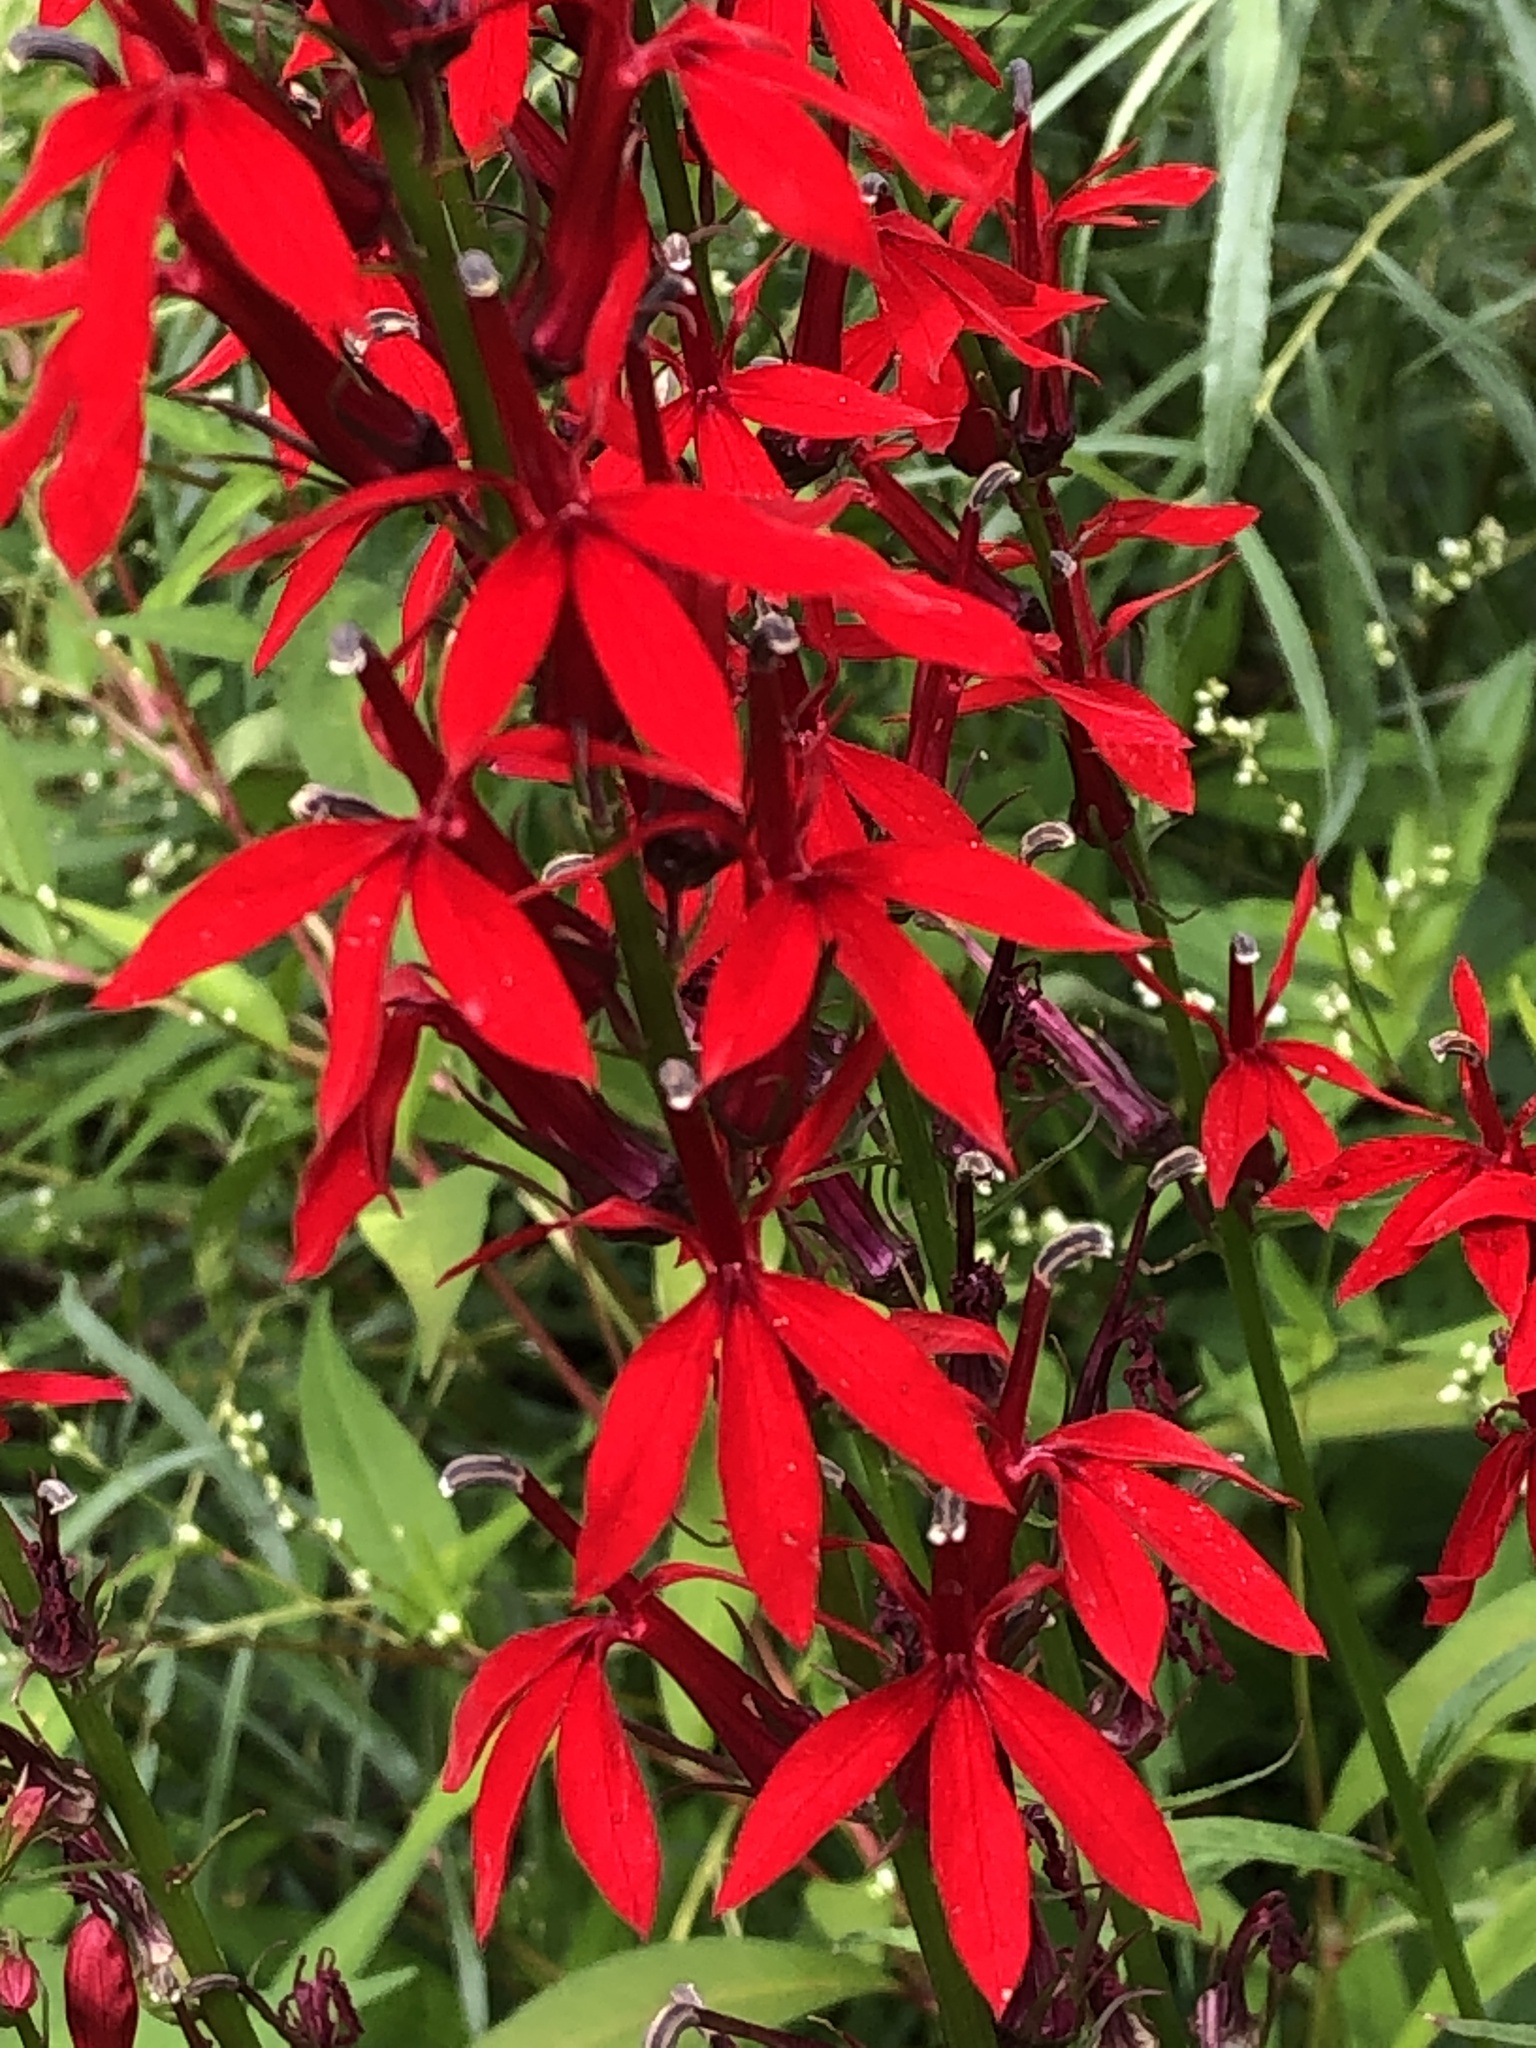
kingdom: Plantae
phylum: Tracheophyta
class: Magnoliopsida
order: Asterales
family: Campanulaceae
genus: Lobelia
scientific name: Lobelia cardinalis
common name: Cardinal flower
